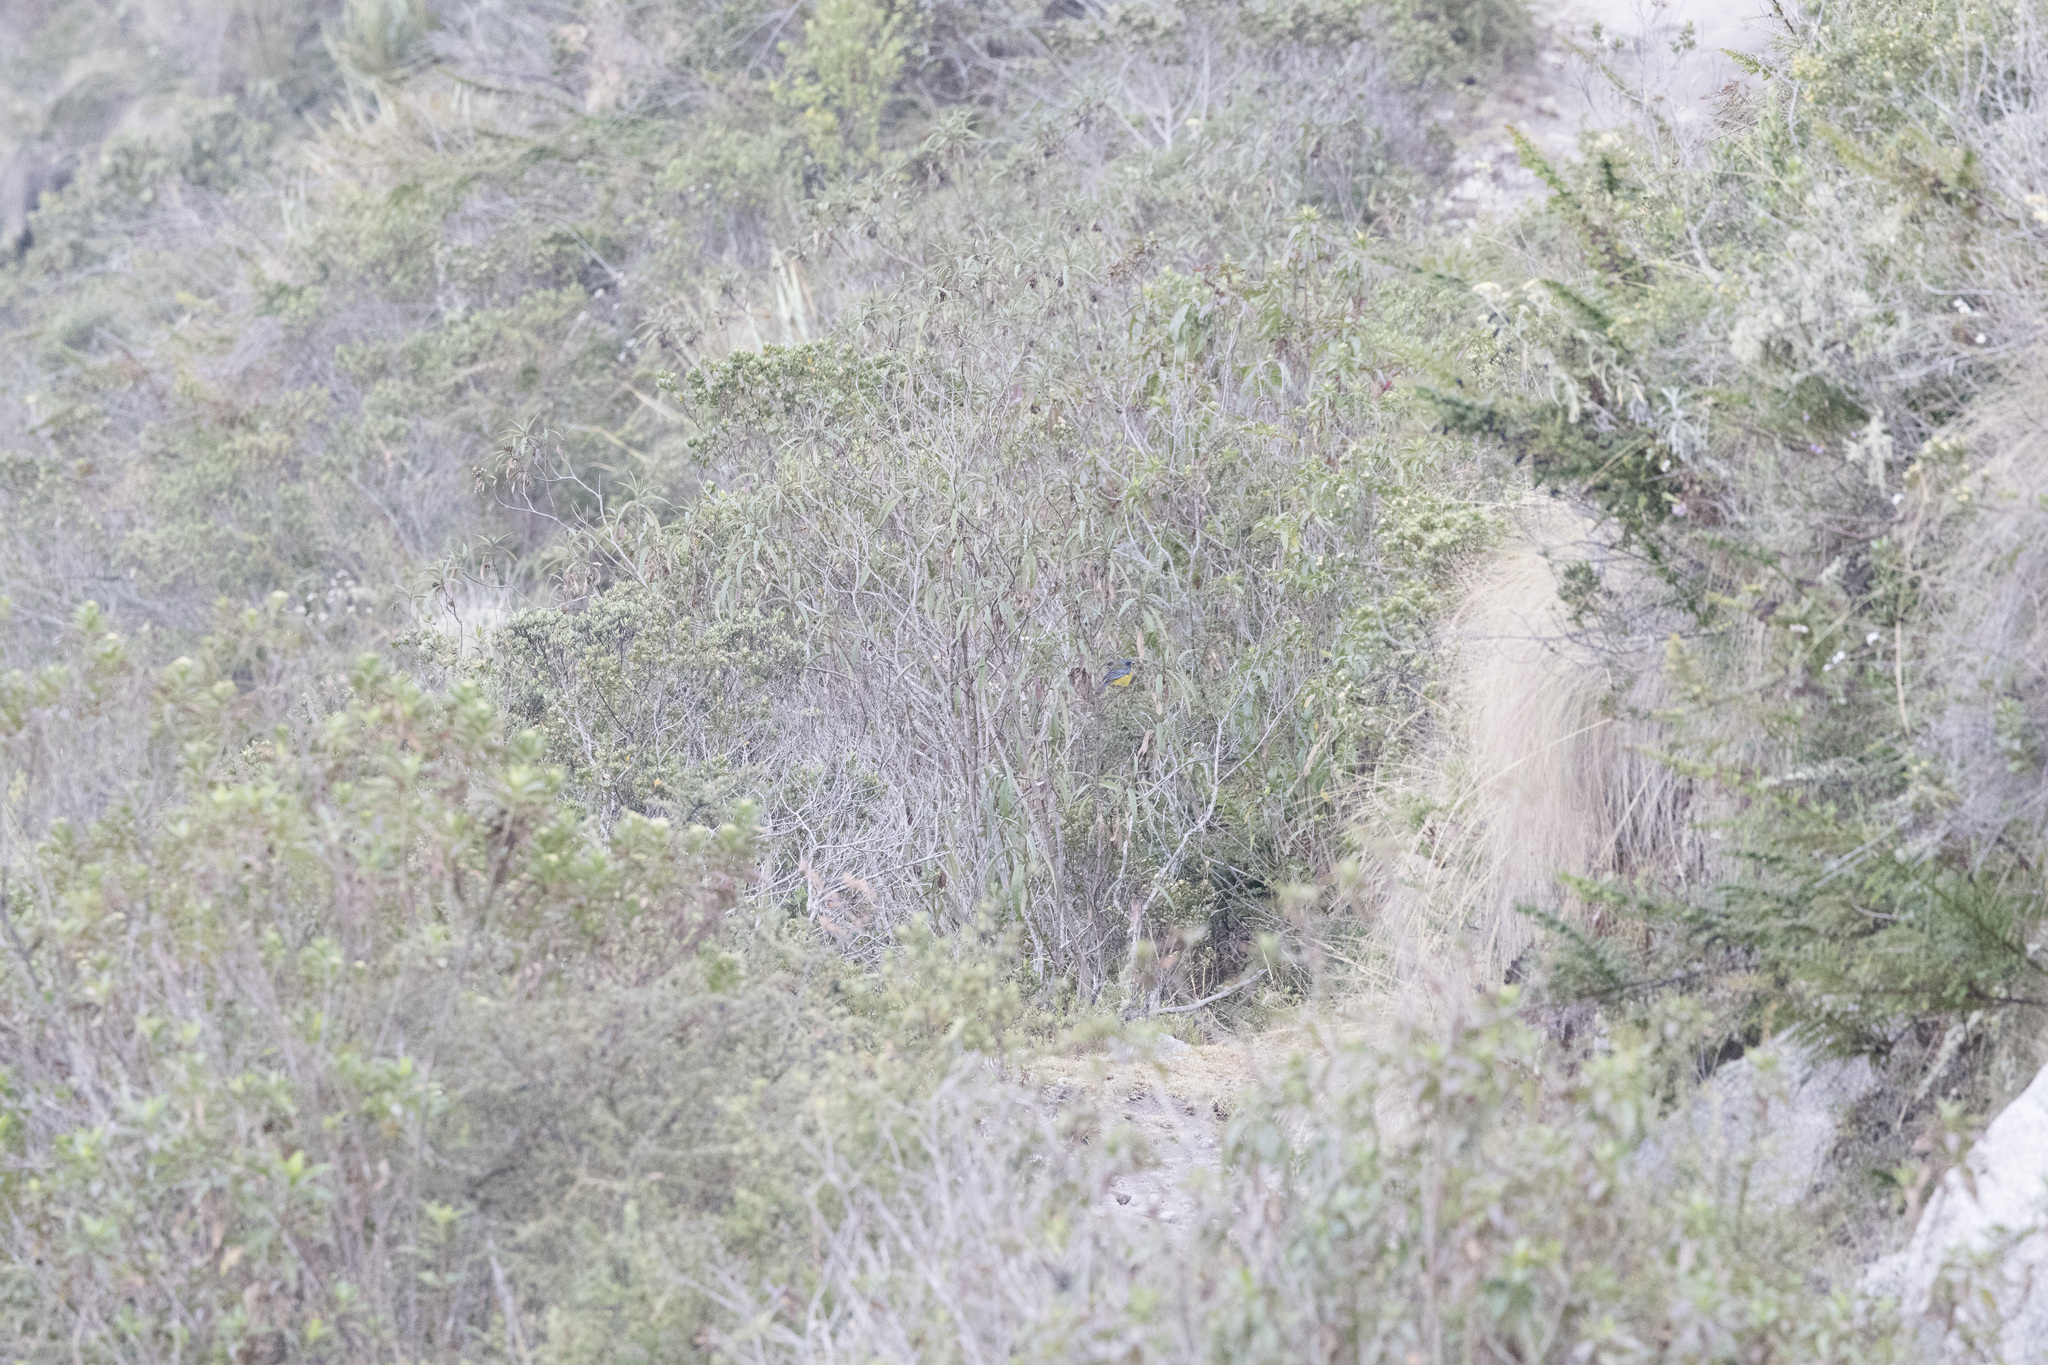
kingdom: Animalia
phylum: Chordata
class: Aves
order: Passeriformes
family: Thraupidae
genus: Rauenia
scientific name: Rauenia bonariensis
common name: Blue-and-yellow tanager
